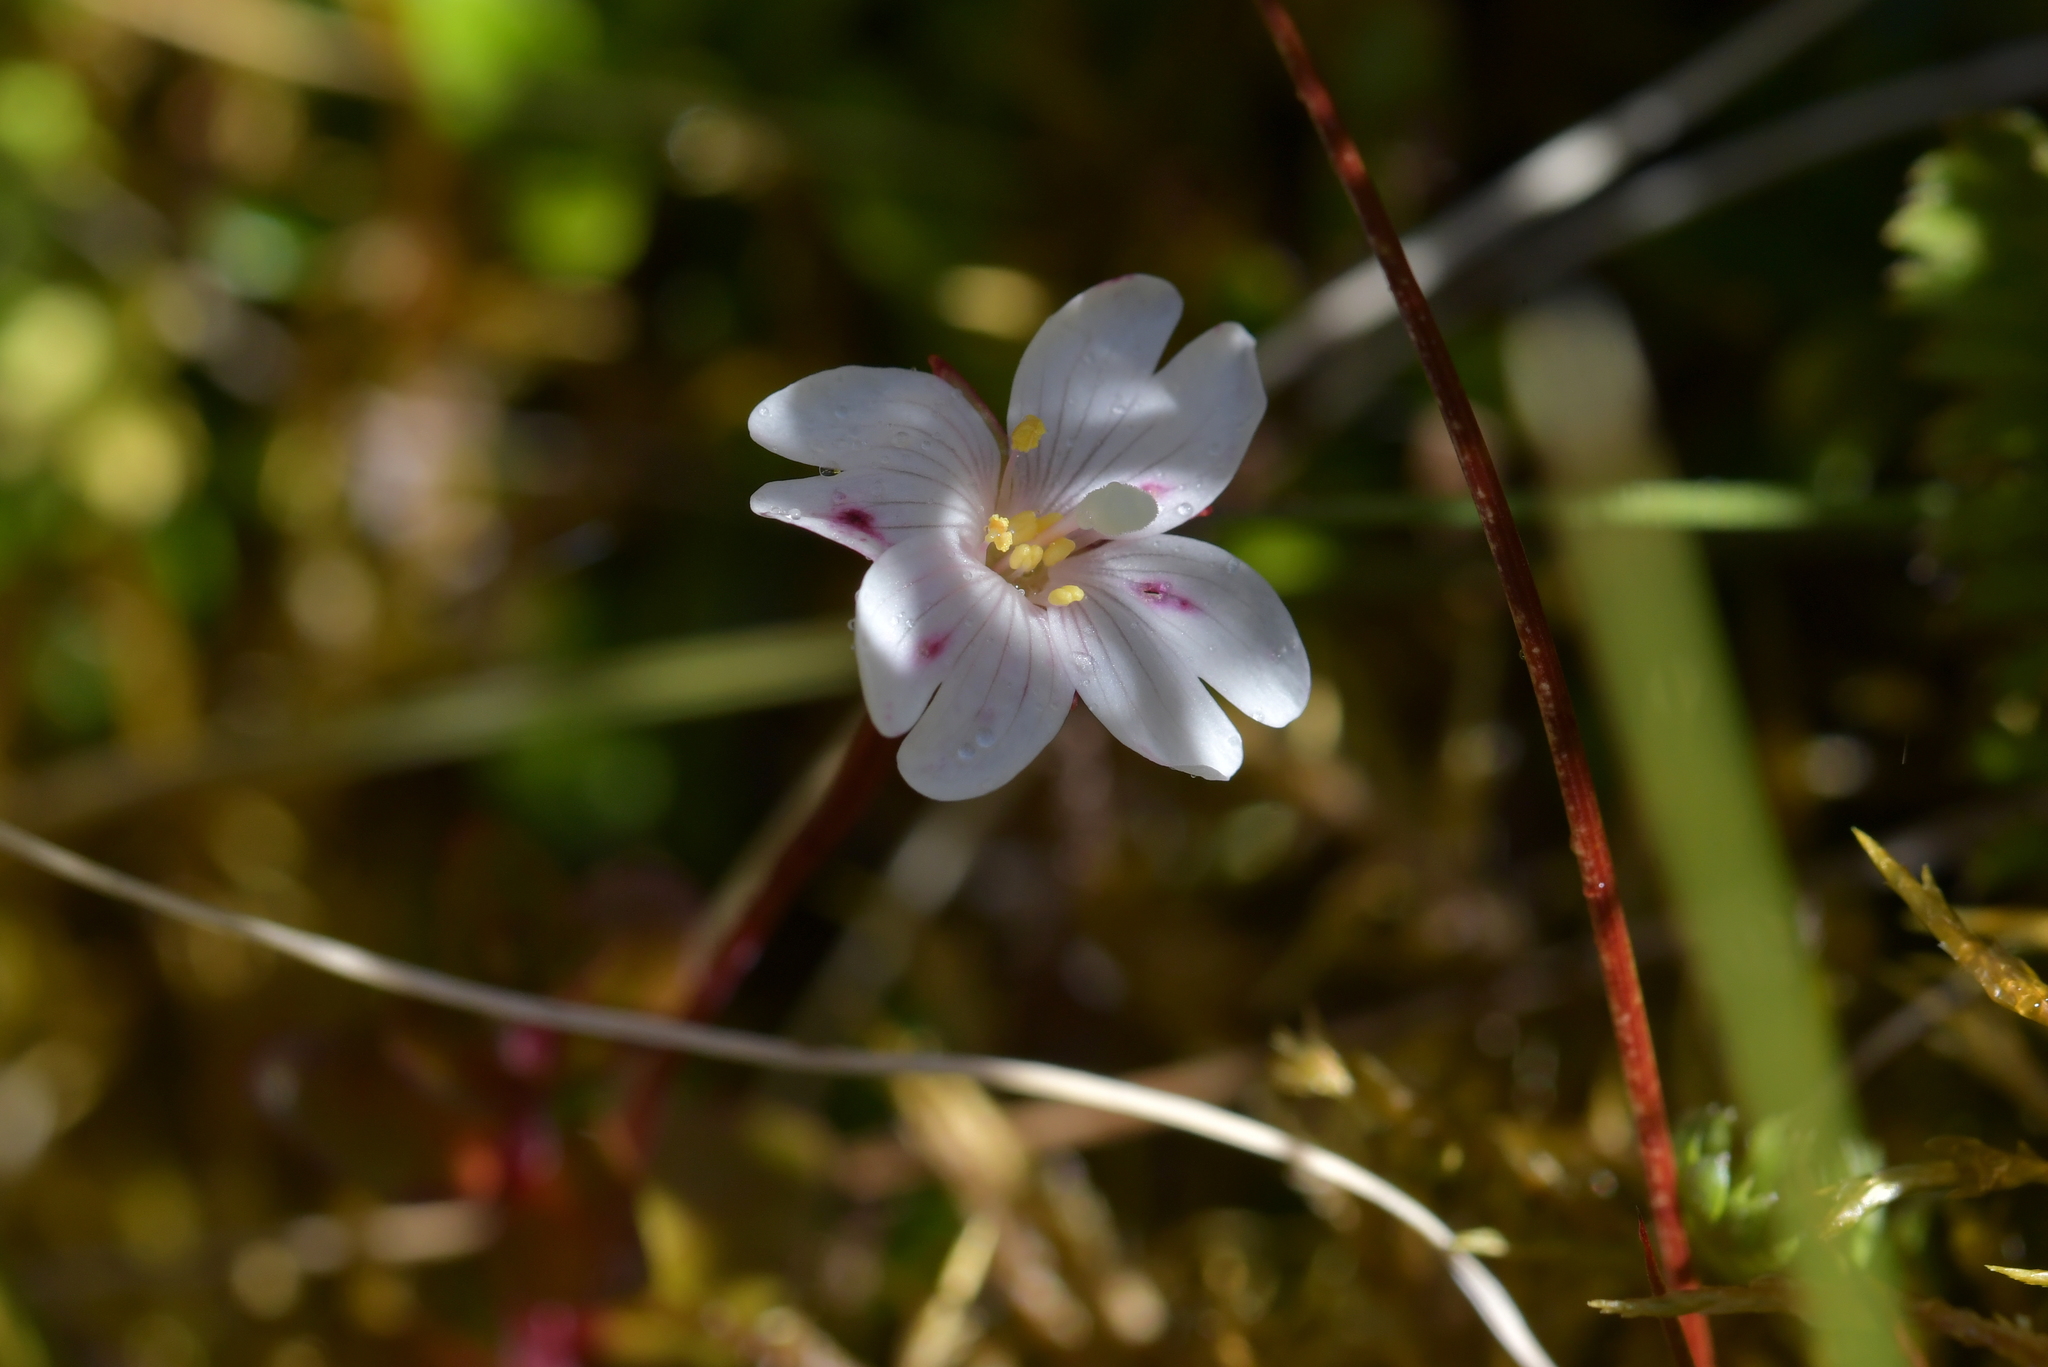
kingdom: Plantae
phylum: Tracheophyta
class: Magnoliopsida
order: Myrtales
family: Onagraceae
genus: Epilobium
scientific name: Epilobium chlorifolium
